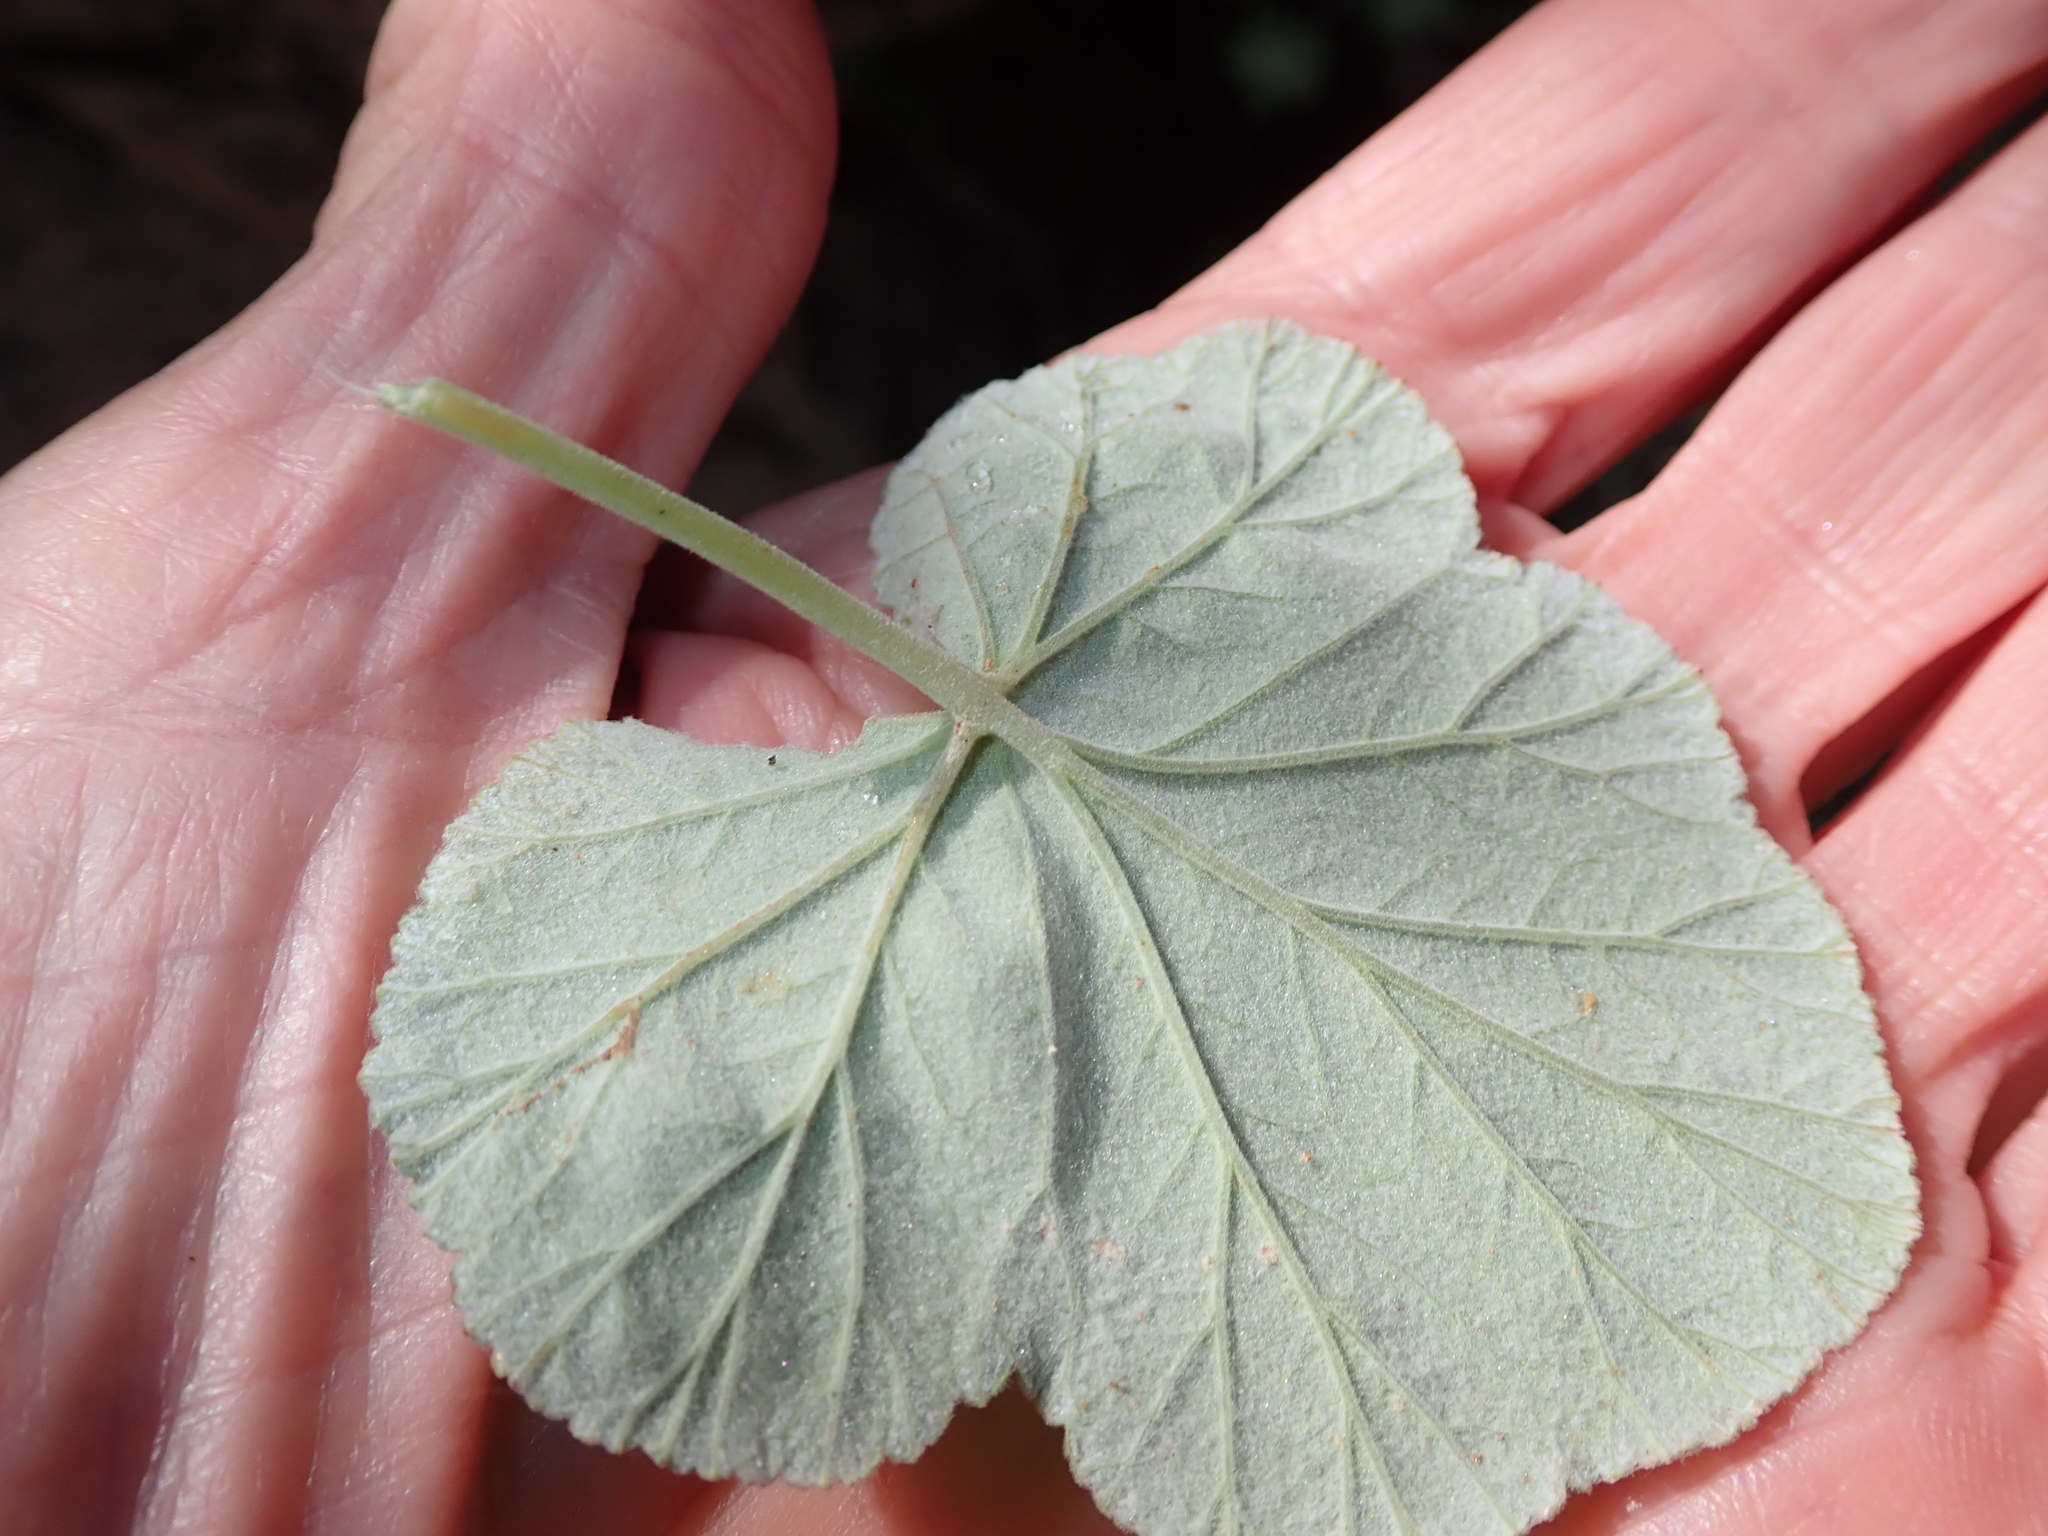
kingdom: Plantae
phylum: Tracheophyta
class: Magnoliopsida
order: Geraniales
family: Geraniaceae
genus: Pelargonium
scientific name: Pelargonium echinatum
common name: Cactus geranium
